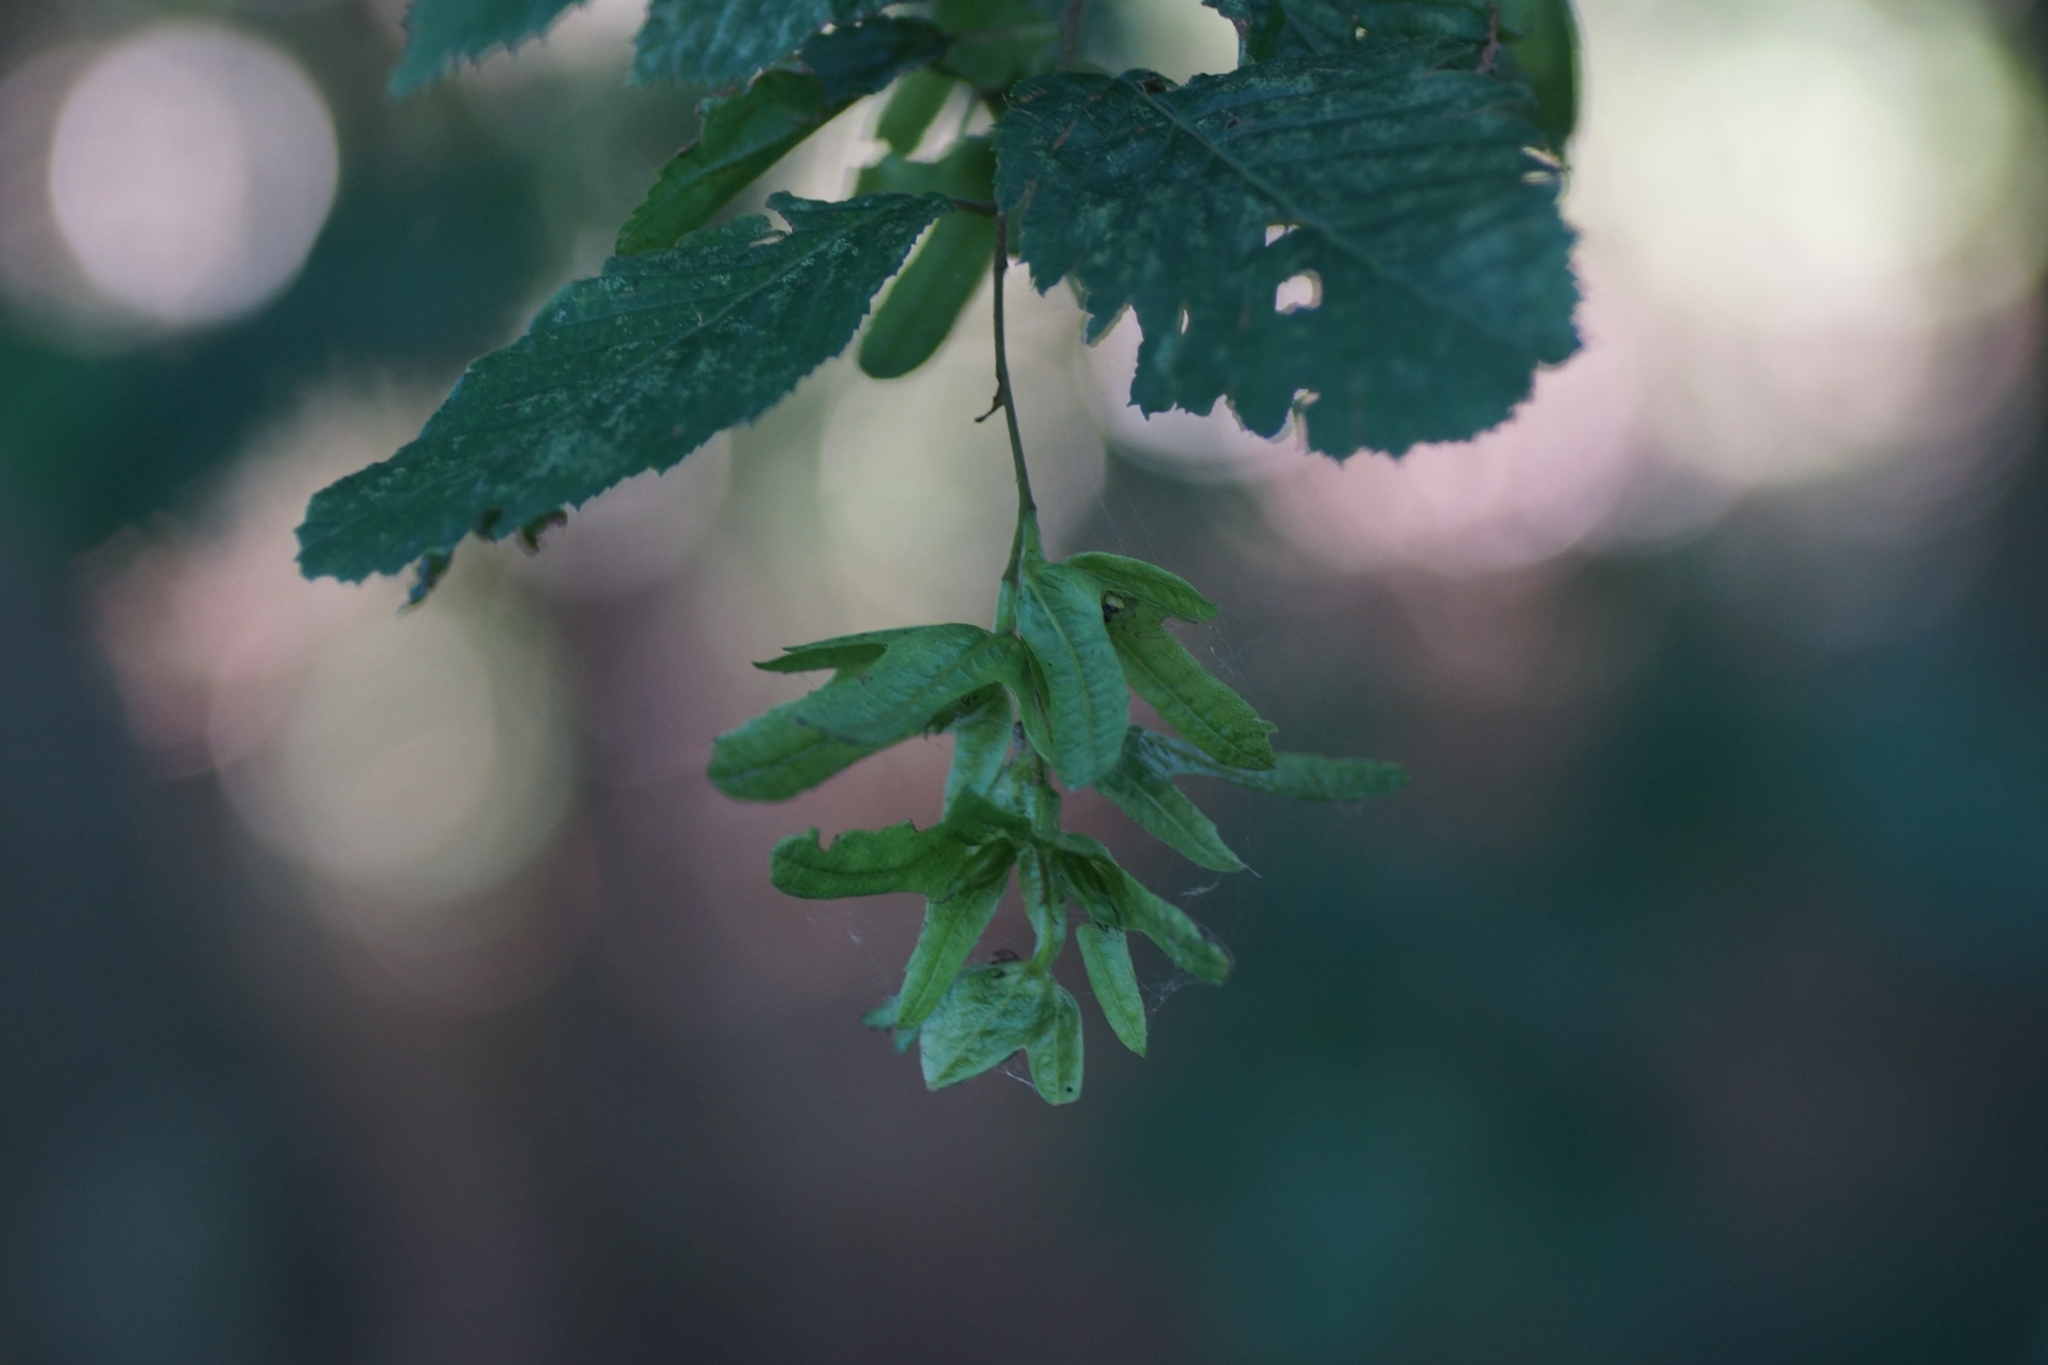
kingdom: Plantae
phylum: Tracheophyta
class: Magnoliopsida
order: Fagales
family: Betulaceae
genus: Carpinus
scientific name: Carpinus betulus
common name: Hornbeam
